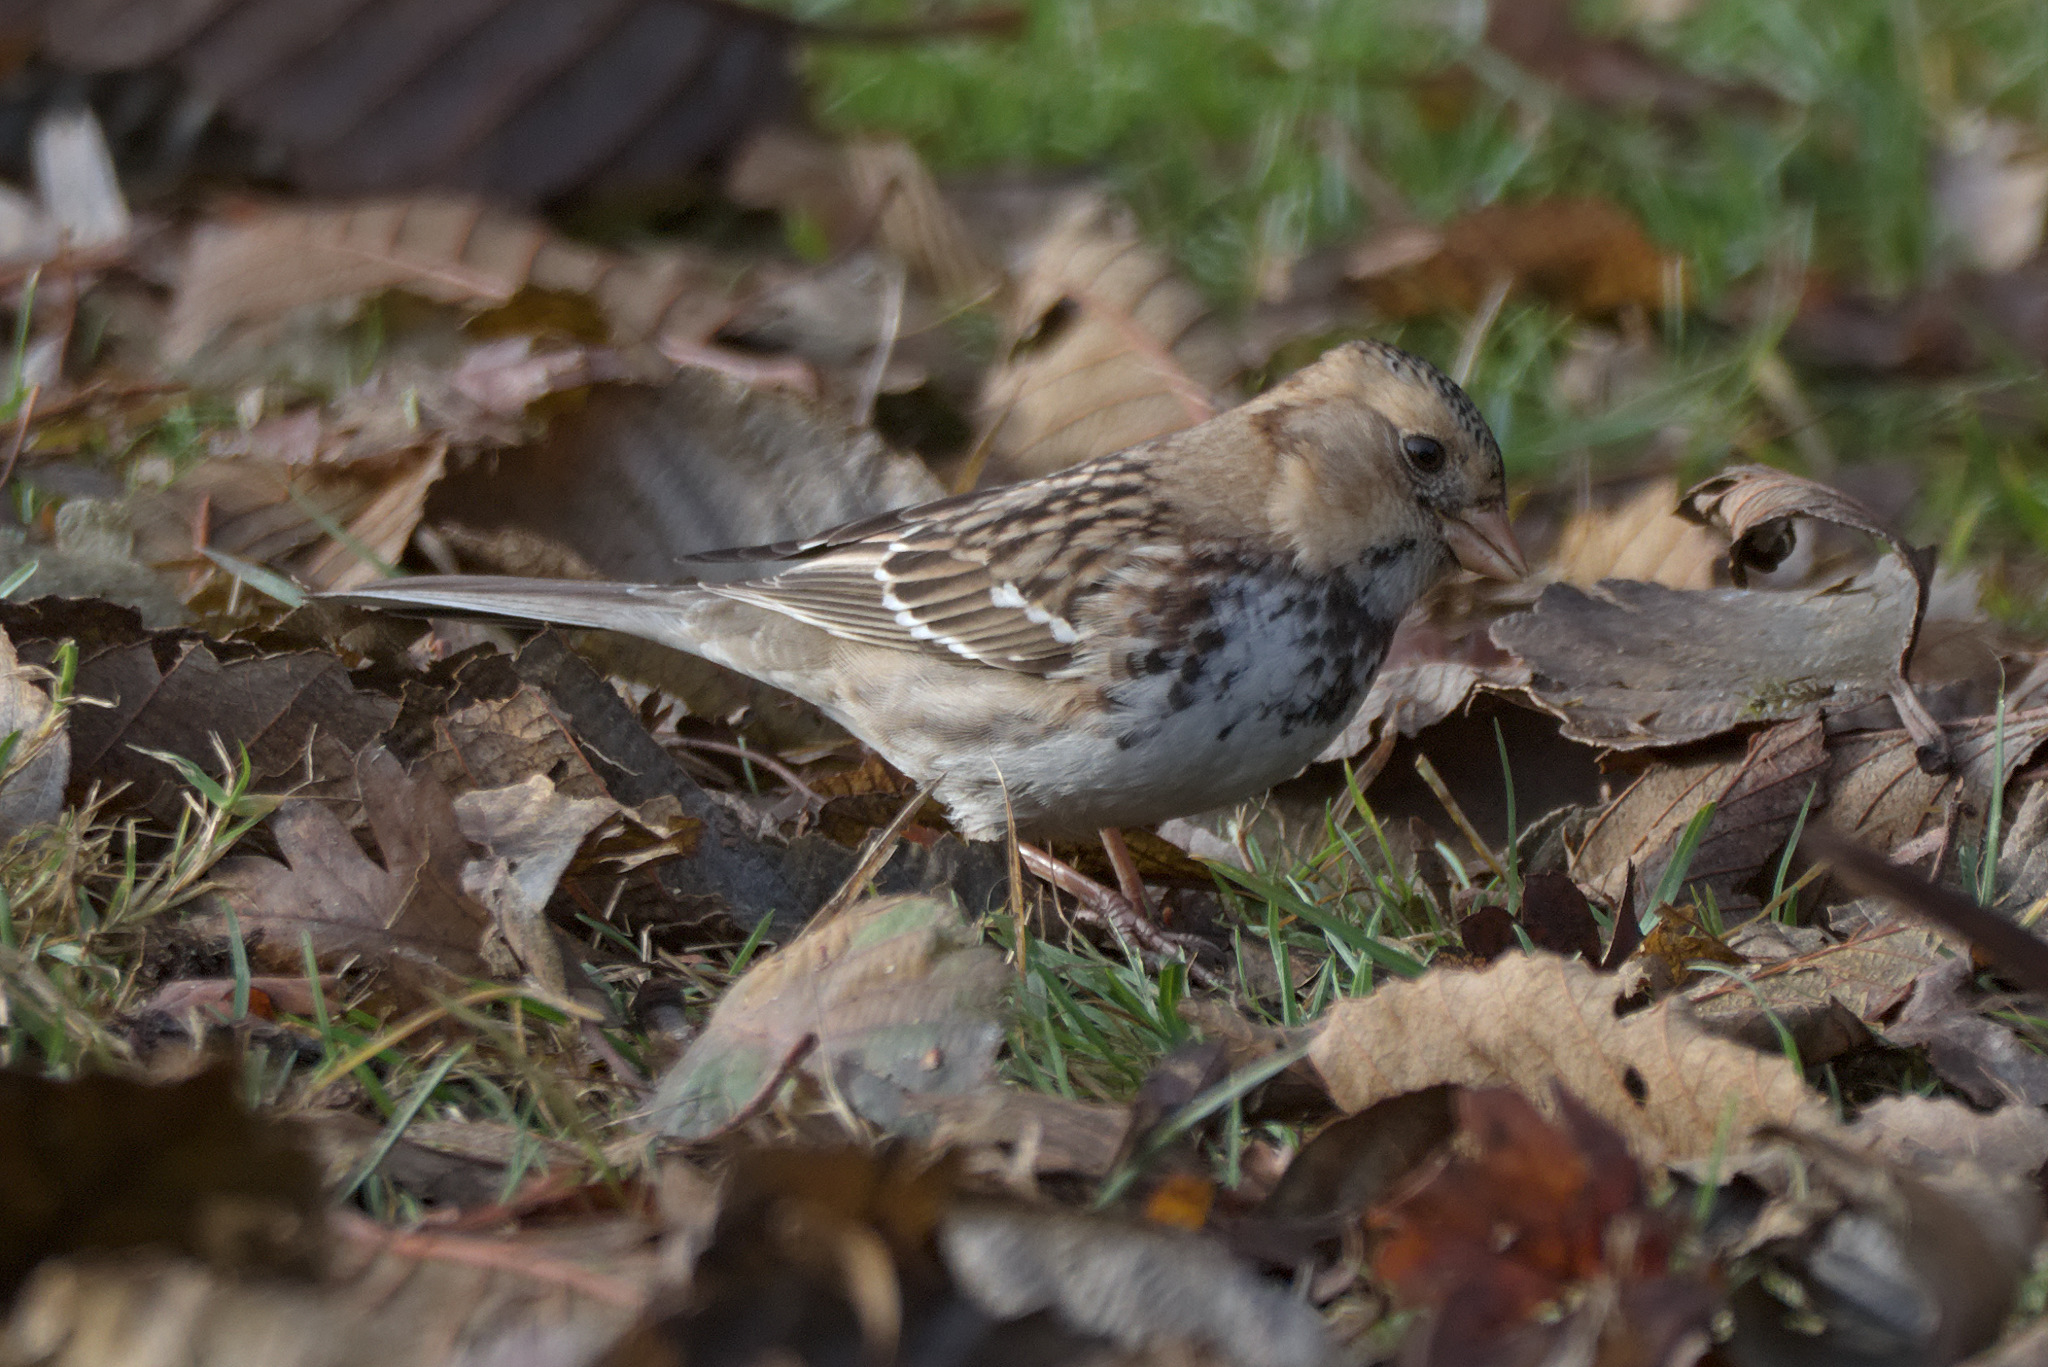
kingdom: Animalia
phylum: Chordata
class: Aves
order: Passeriformes
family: Passerellidae
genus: Zonotrichia
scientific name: Zonotrichia querula
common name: Harris's sparrow
